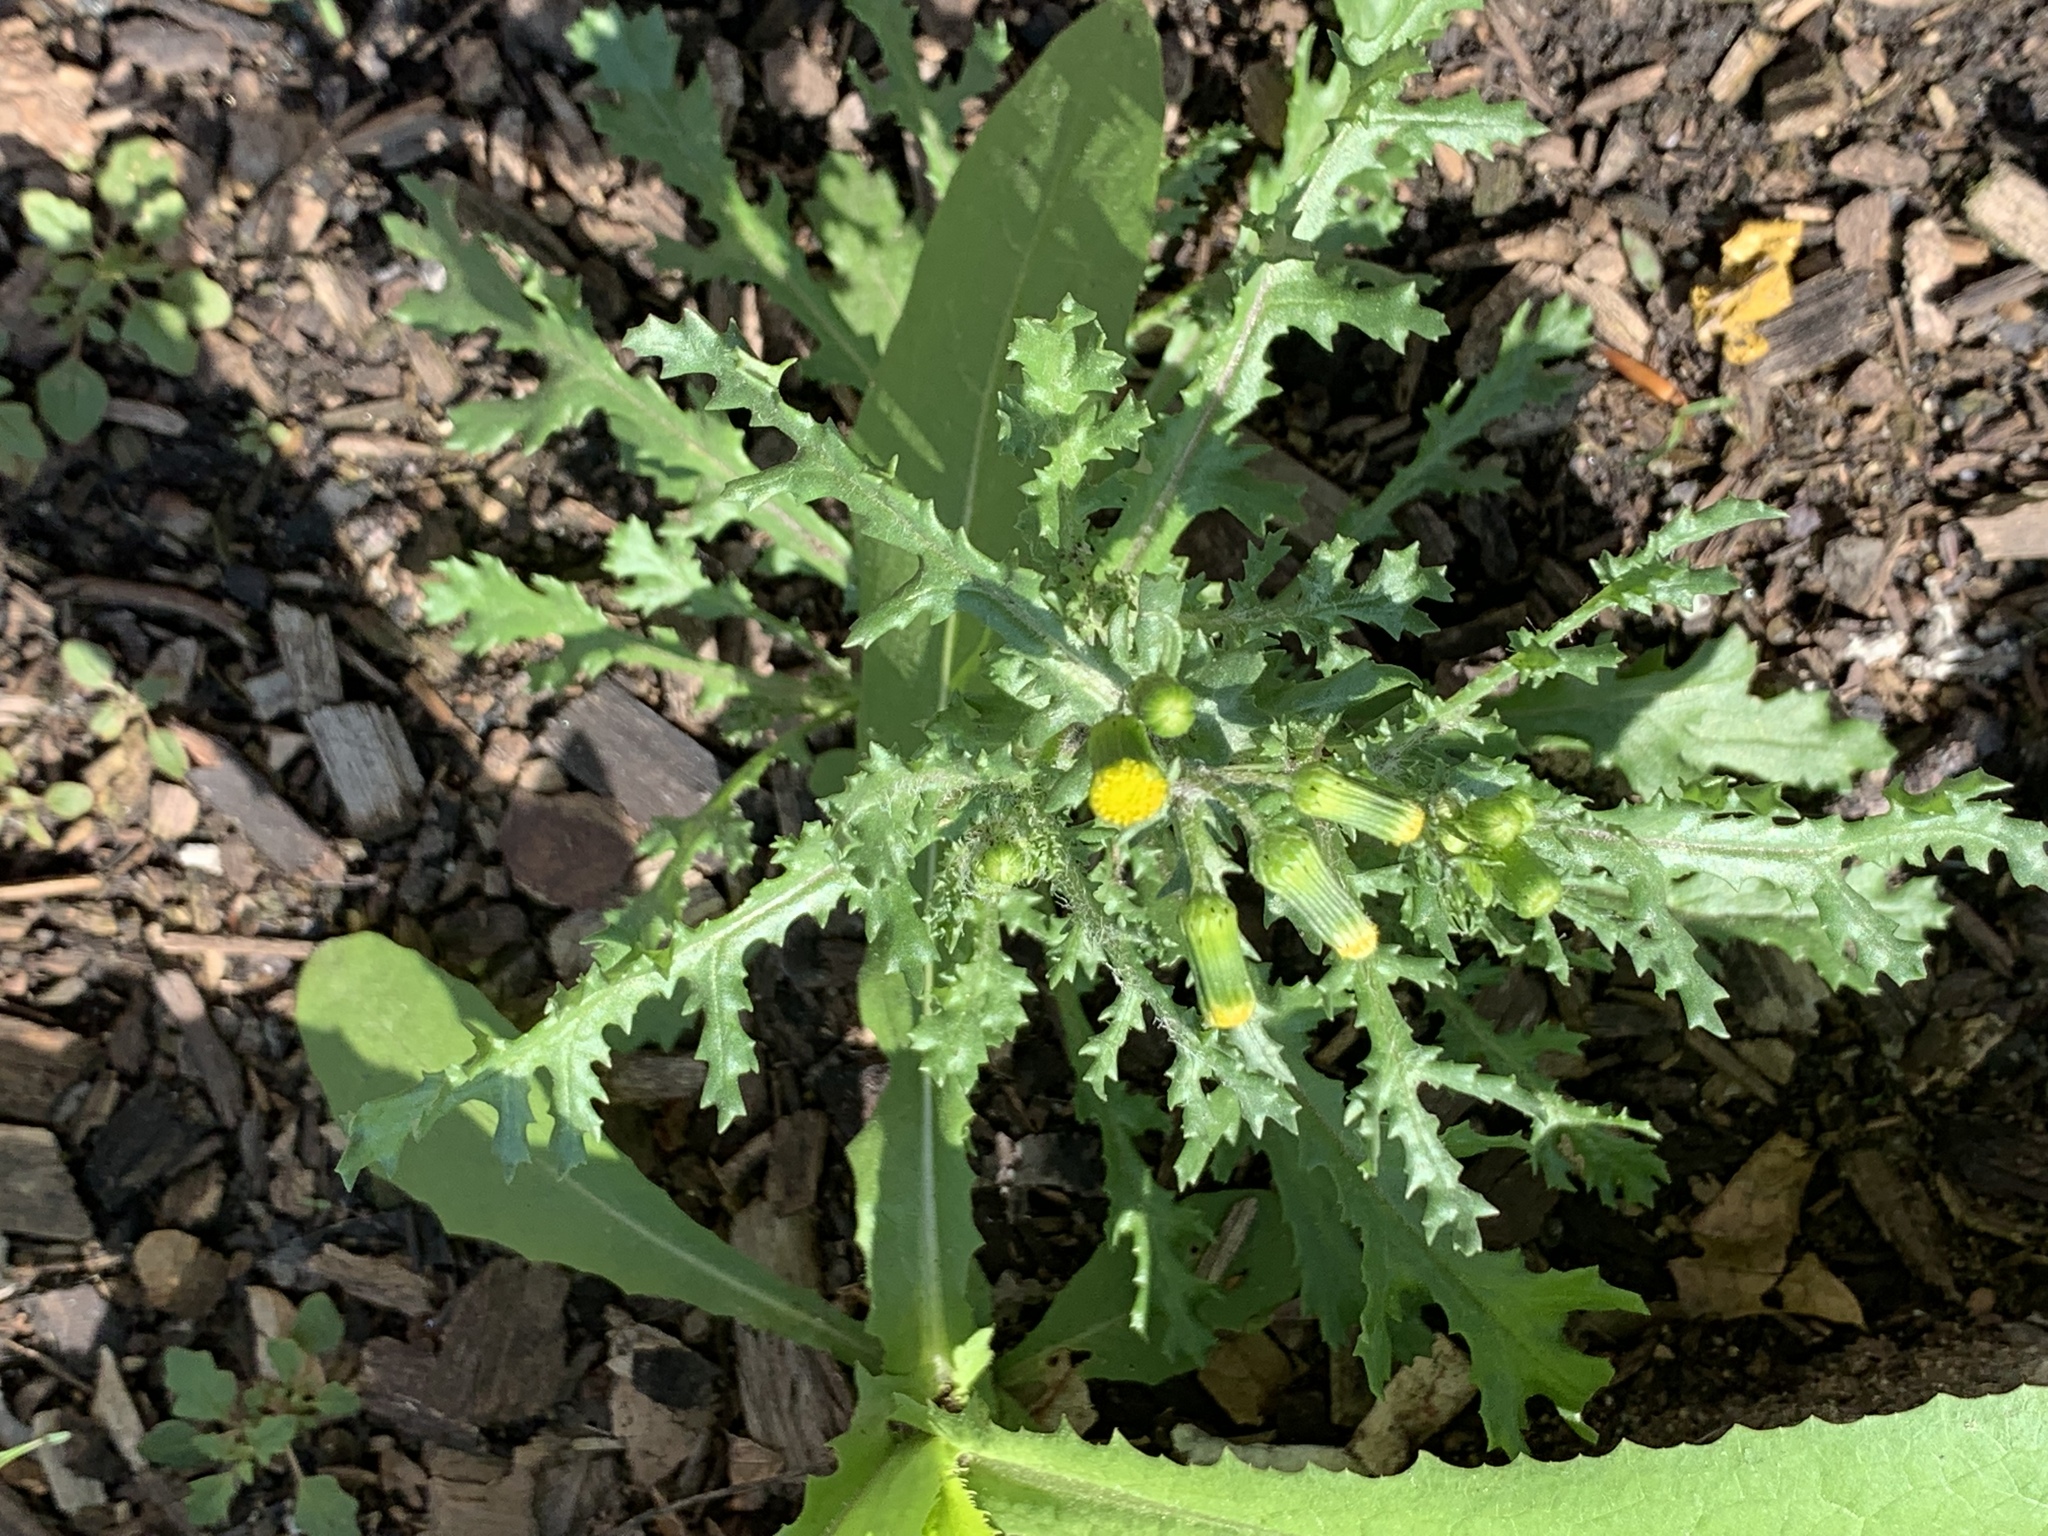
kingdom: Plantae
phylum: Tracheophyta
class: Magnoliopsida
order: Asterales
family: Asteraceae
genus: Senecio
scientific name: Senecio vulgaris
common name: Old-man-in-the-spring
